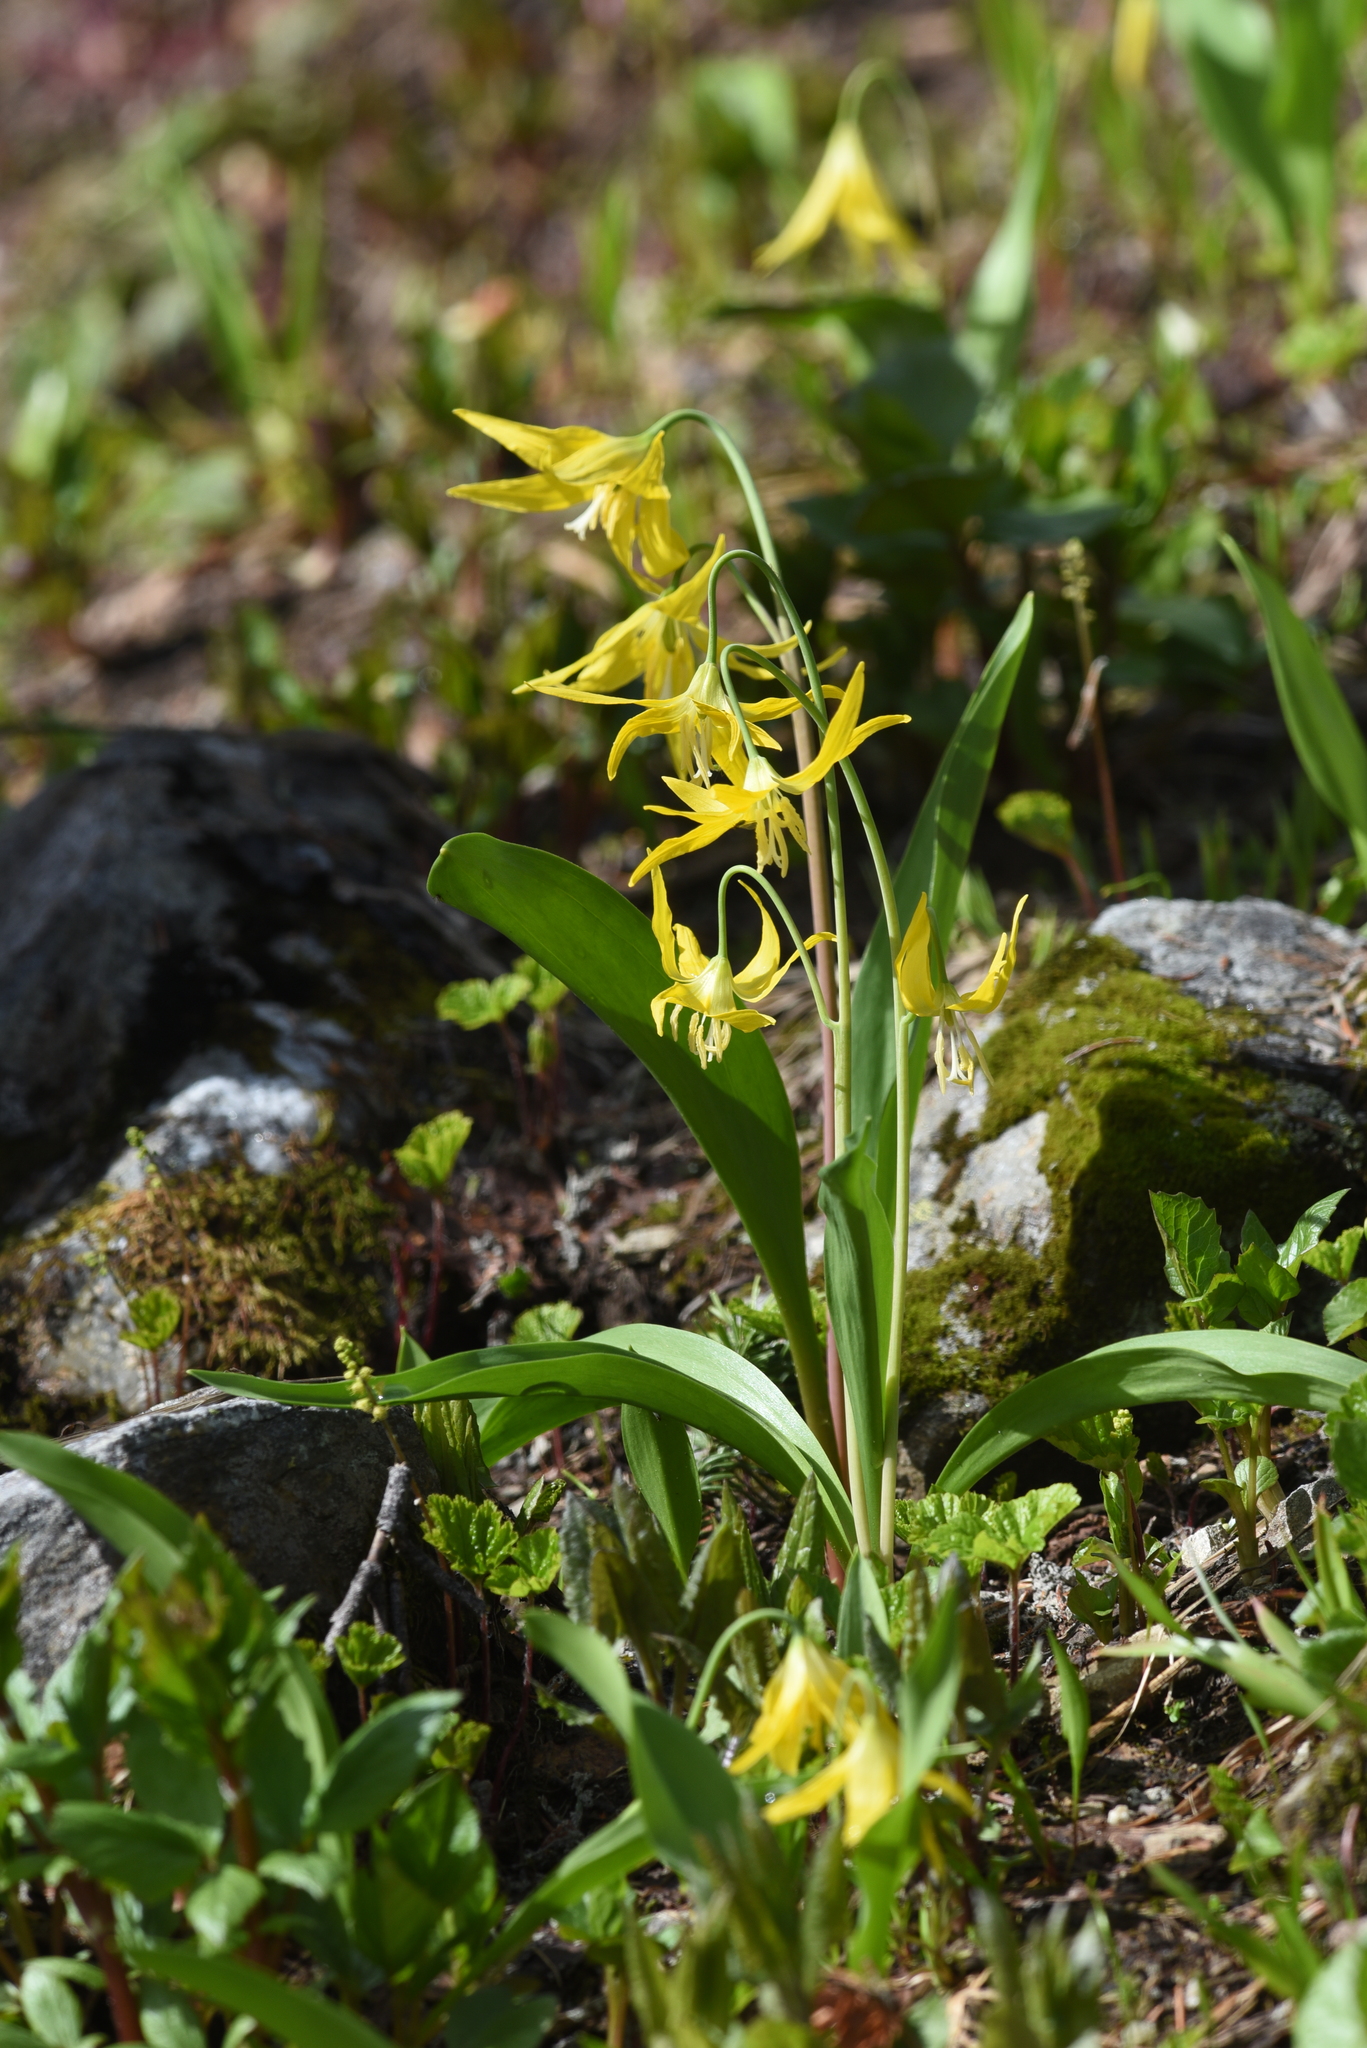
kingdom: Plantae
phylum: Tracheophyta
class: Liliopsida
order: Liliales
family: Liliaceae
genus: Erythronium
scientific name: Erythronium grandiflorum
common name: Avalanche-lily
